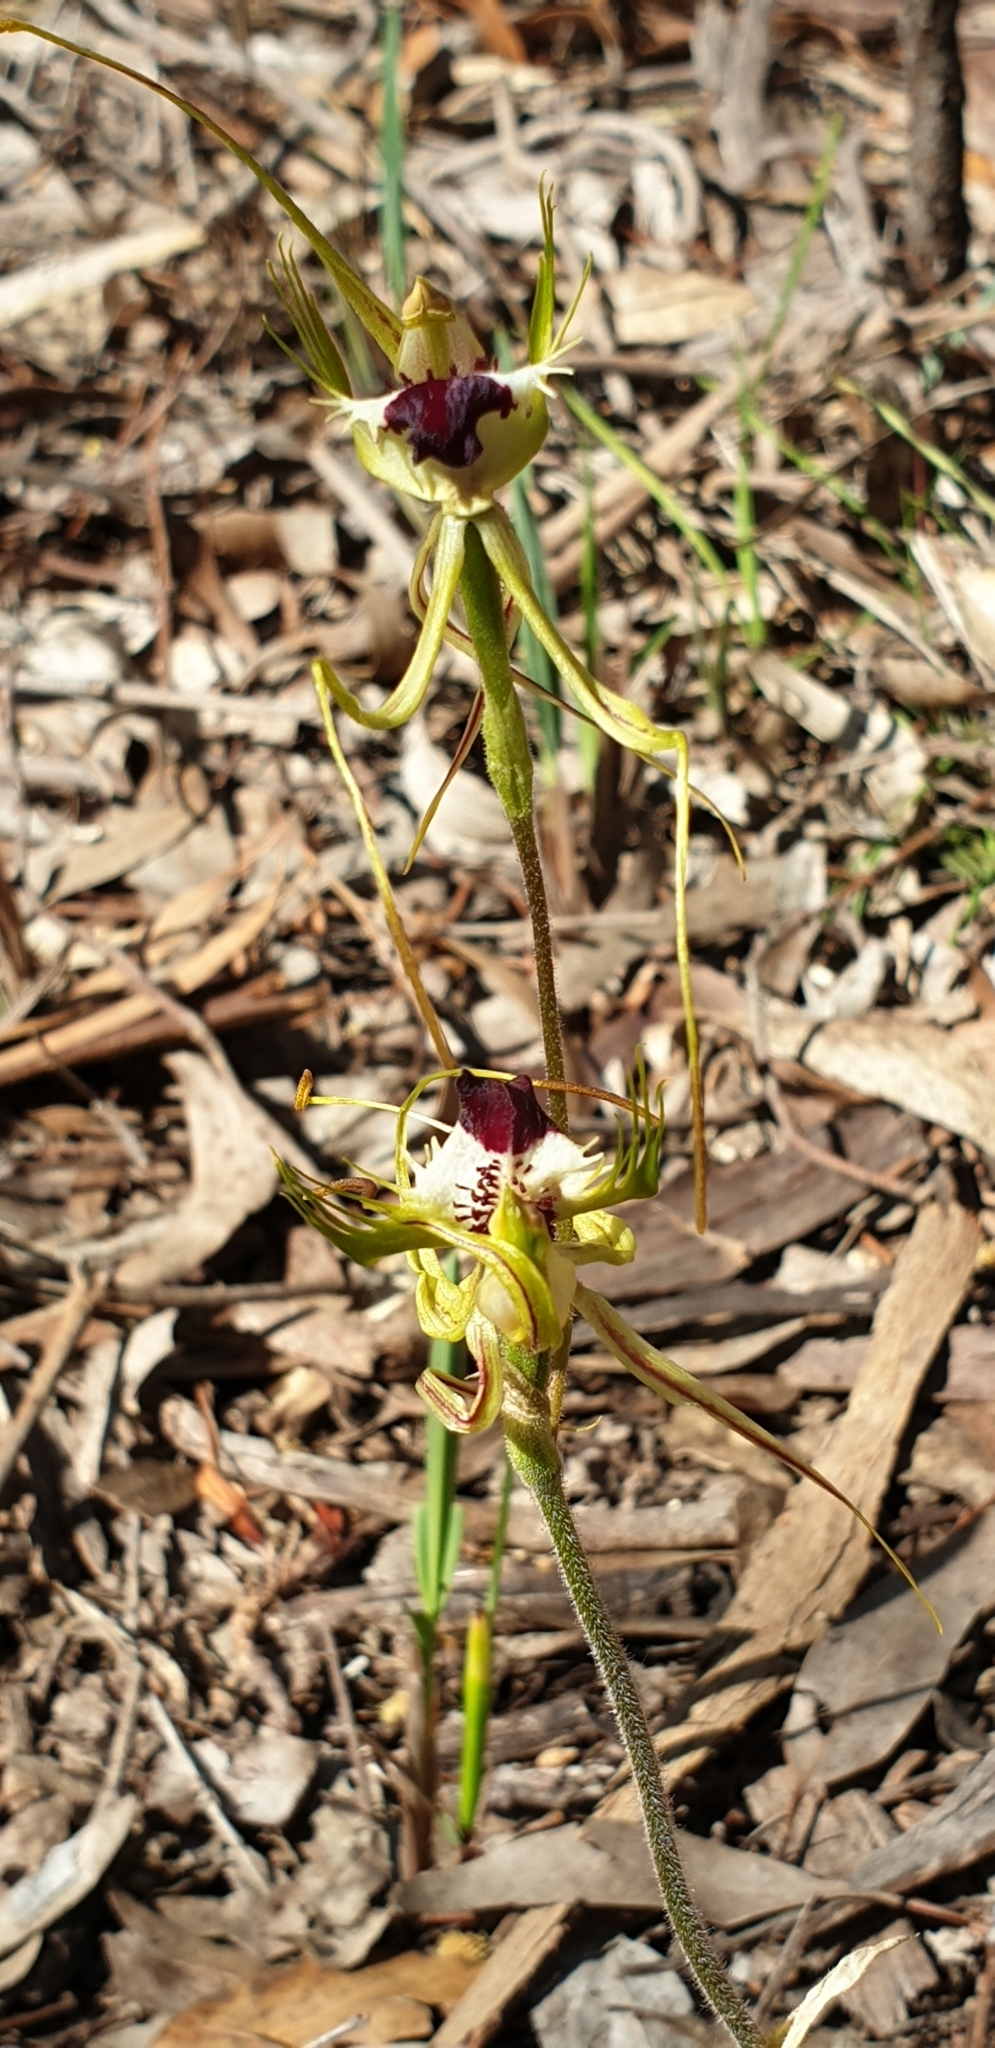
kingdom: Plantae
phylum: Tracheophyta
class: Liliopsida
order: Asparagales
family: Orchidaceae
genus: Caladenia
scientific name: Caladenia tentaculata
